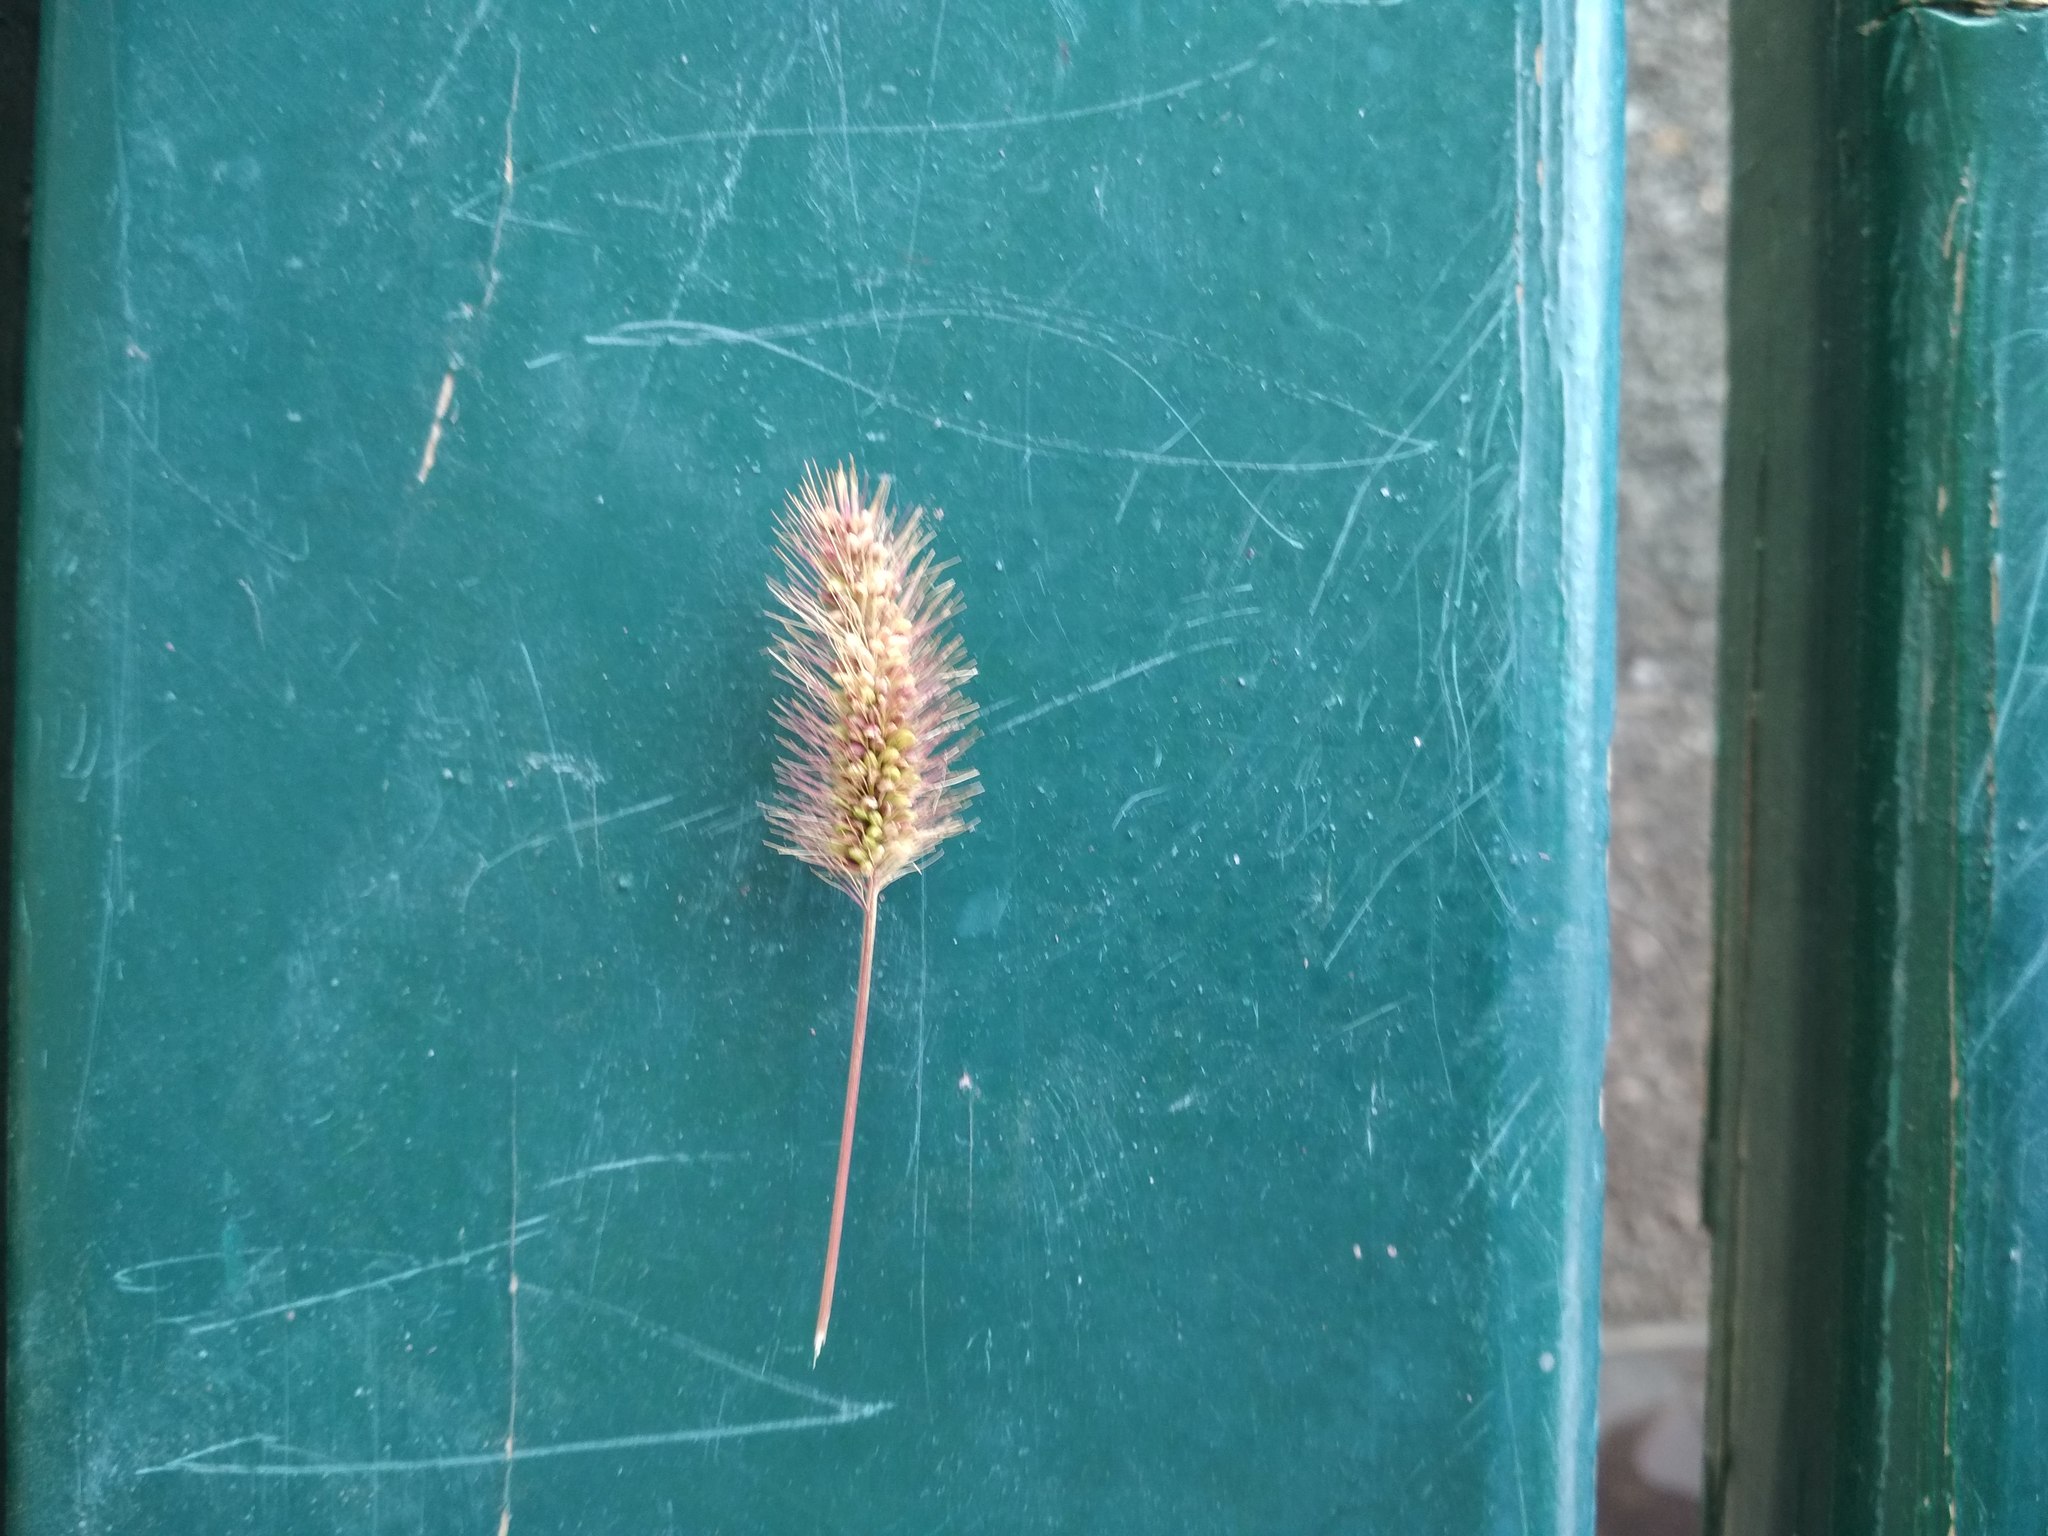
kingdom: Plantae
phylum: Tracheophyta
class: Liliopsida
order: Poales
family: Poaceae
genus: Setaria
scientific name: Setaria viridis
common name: Green bristlegrass
